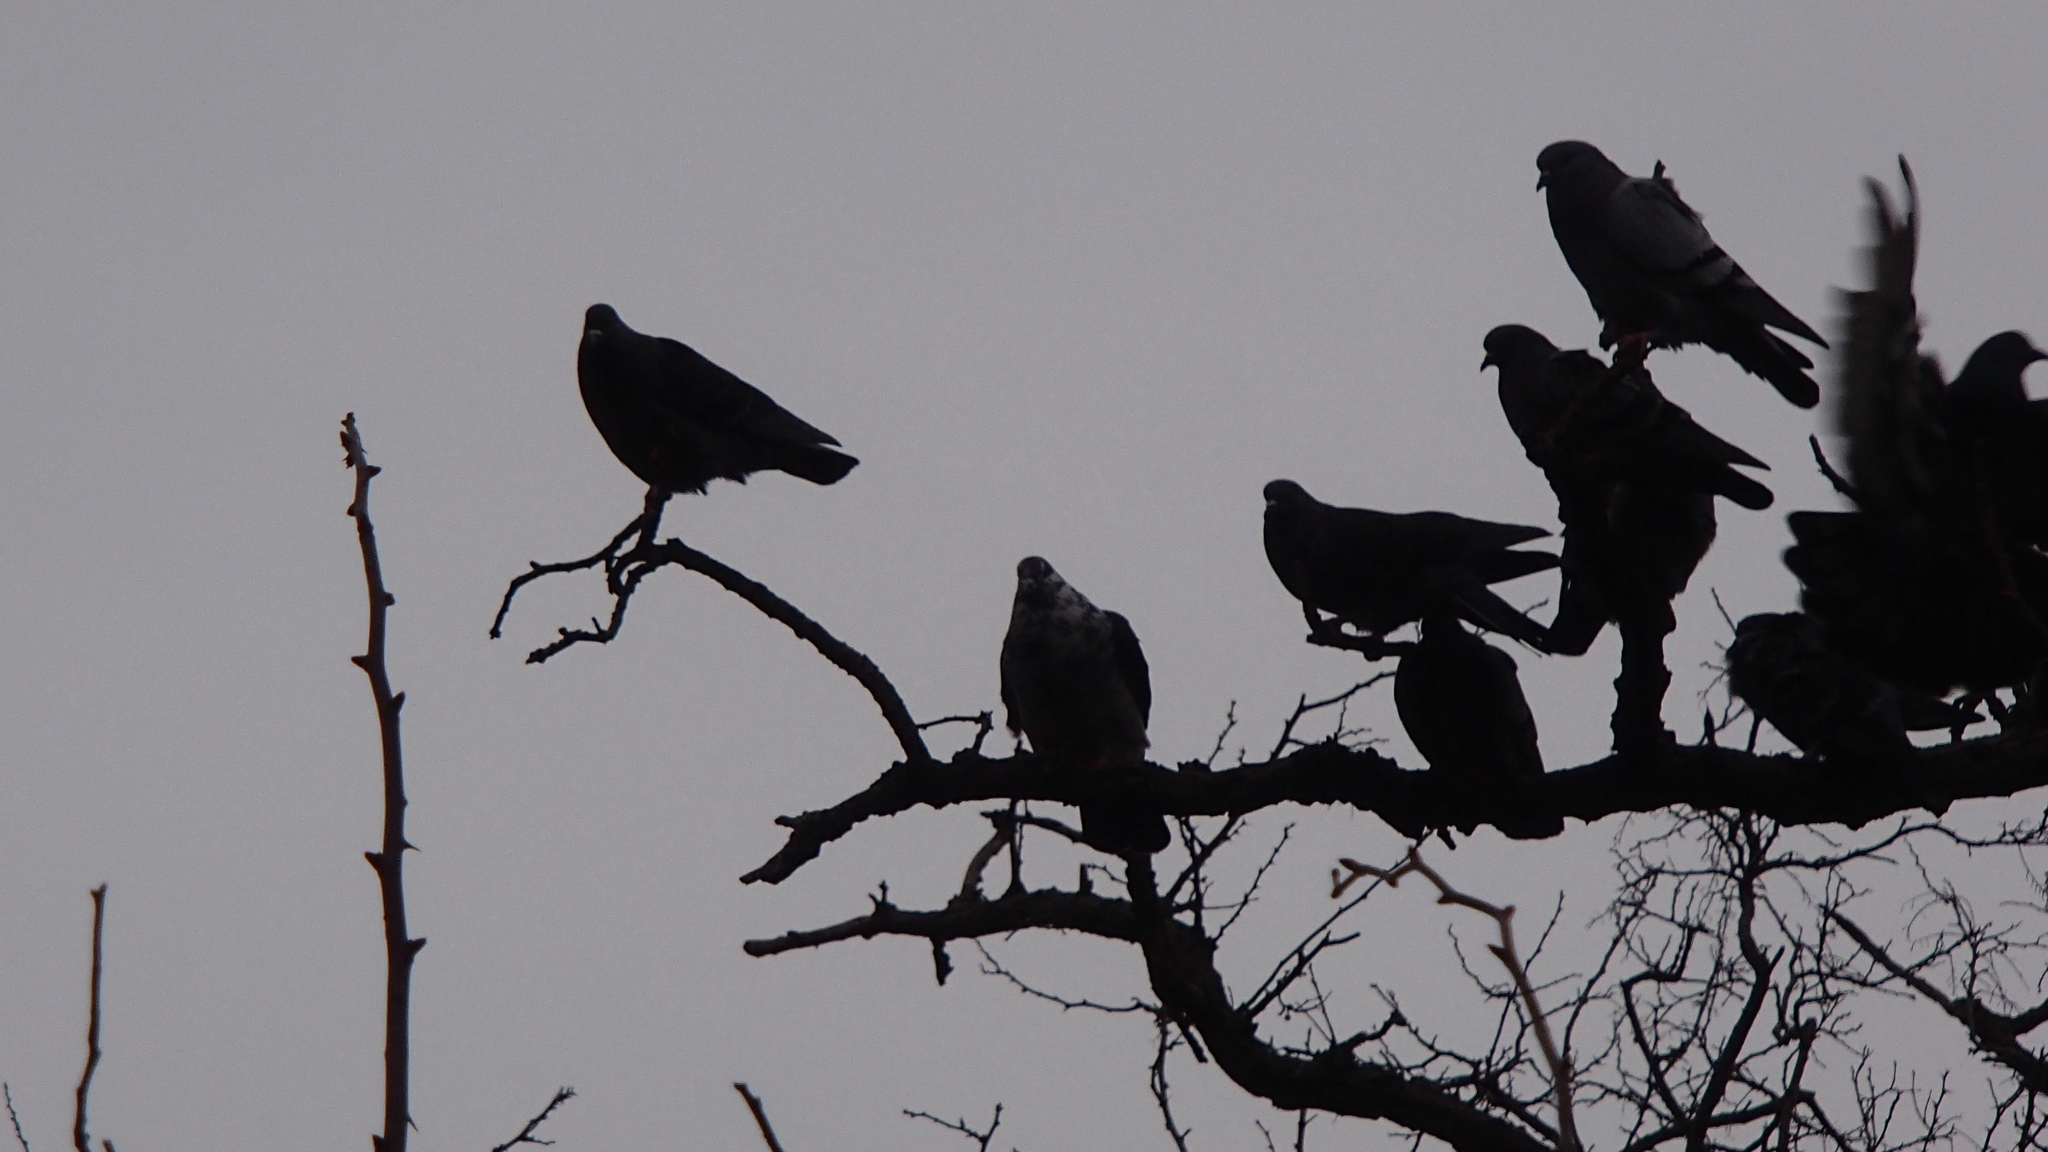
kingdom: Animalia
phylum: Chordata
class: Aves
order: Columbiformes
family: Columbidae
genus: Columba
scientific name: Columba livia
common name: Rock pigeon
